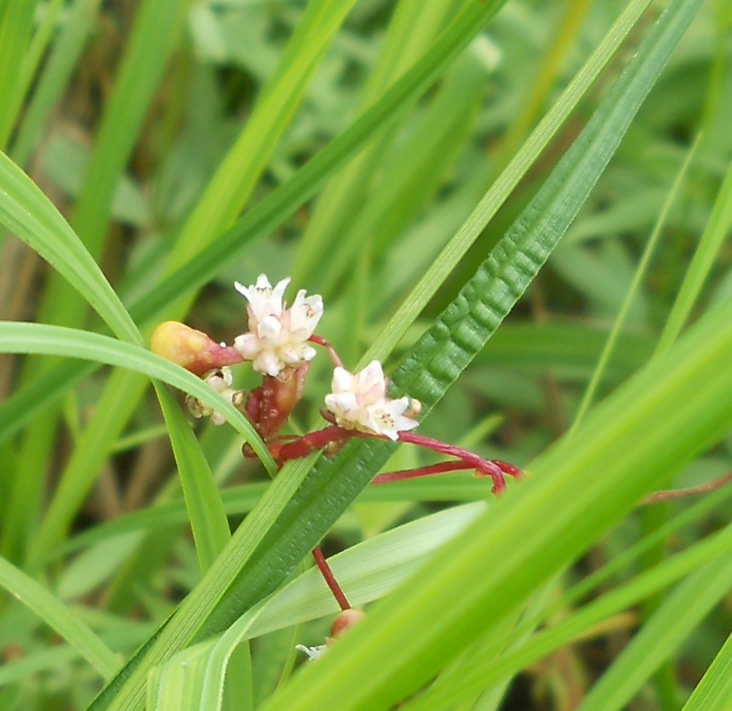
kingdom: Plantae
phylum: Tracheophyta
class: Magnoliopsida
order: Solanales
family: Convolvulaceae
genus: Cuscuta
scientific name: Cuscuta europaea
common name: Greater dodder
